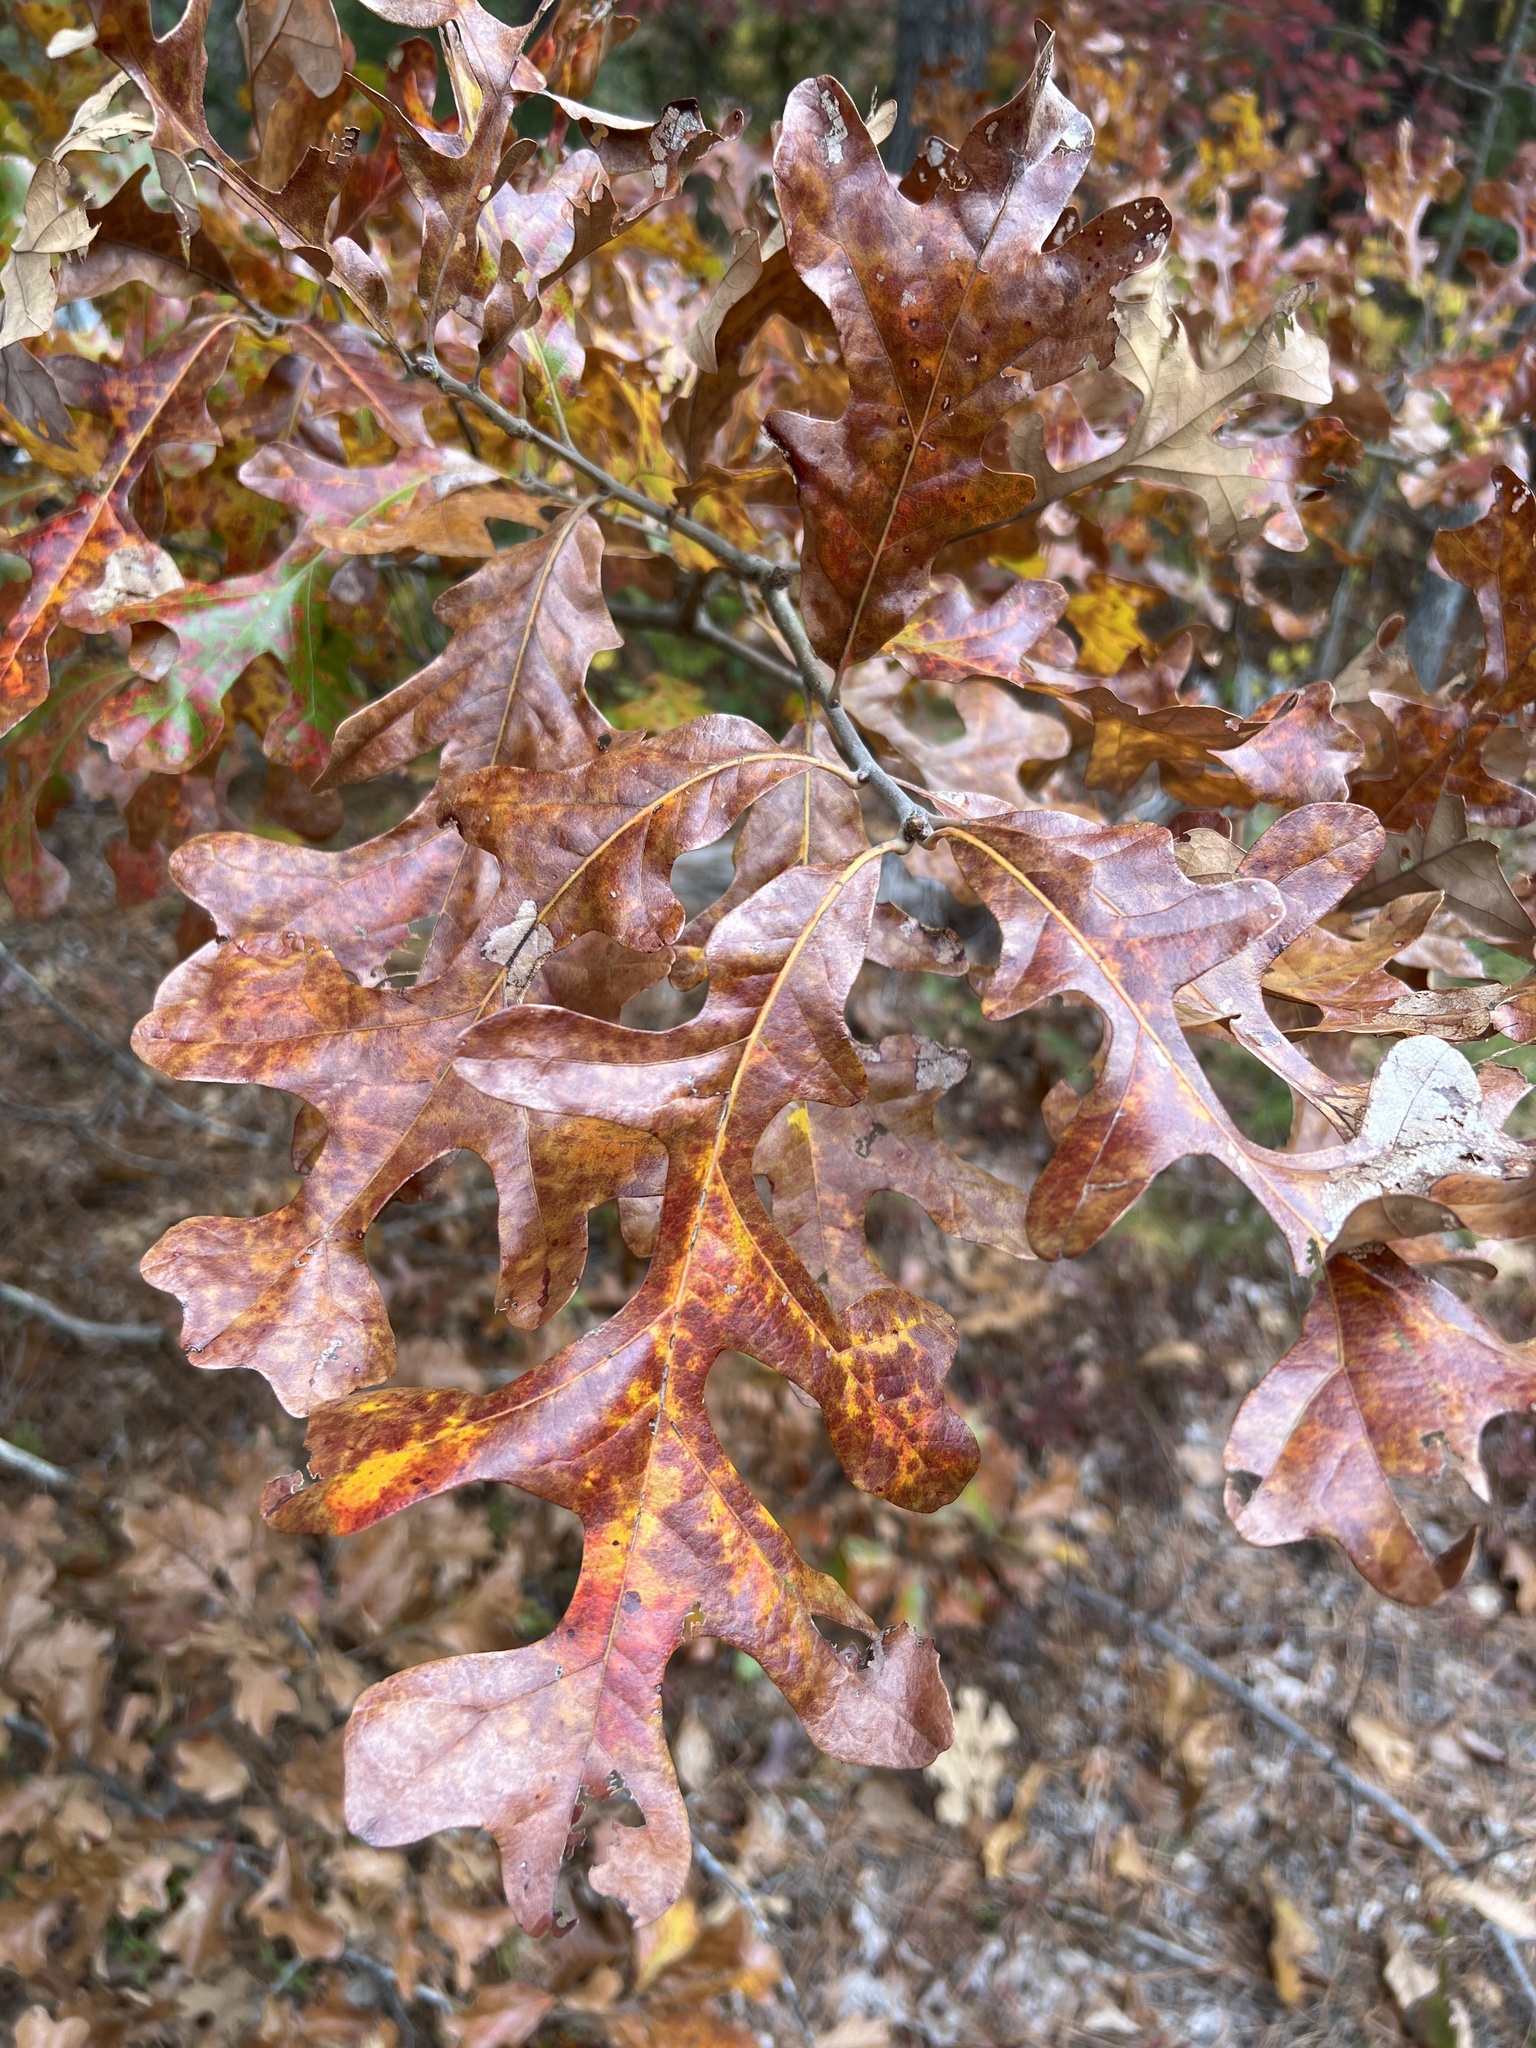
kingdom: Plantae
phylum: Tracheophyta
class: Magnoliopsida
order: Fagales
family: Fagaceae
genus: Quercus
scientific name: Quercus stellata
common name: Post oak
